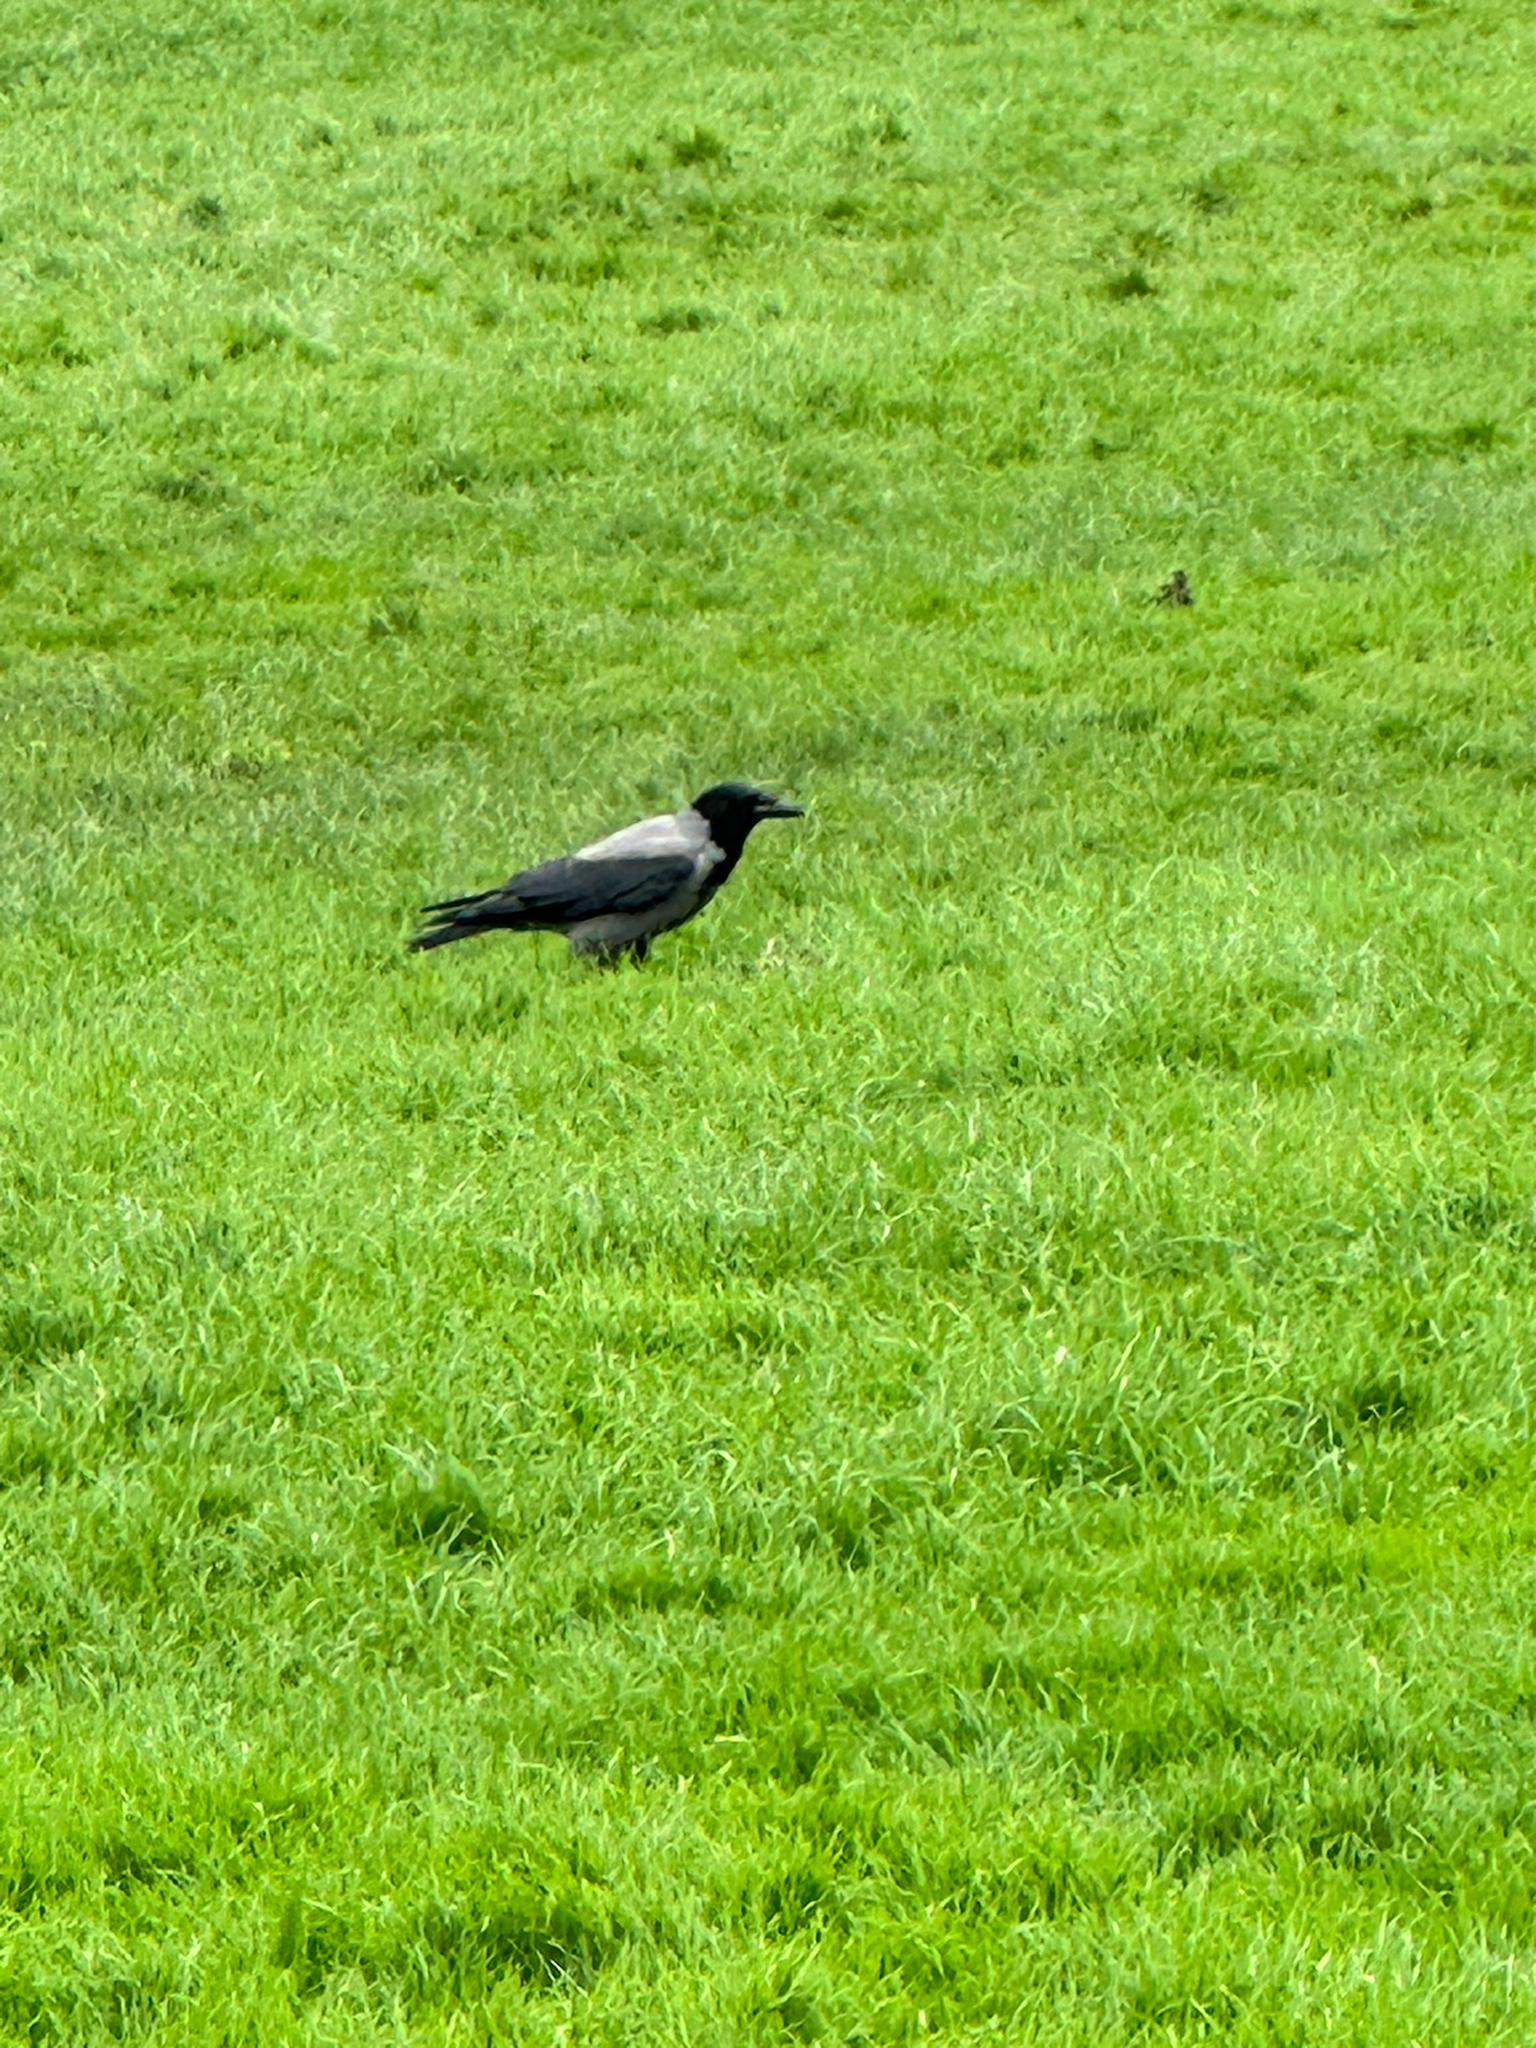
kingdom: Animalia
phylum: Chordata
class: Aves
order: Passeriformes
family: Corvidae
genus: Corvus
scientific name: Corvus cornix
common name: Hooded crow
